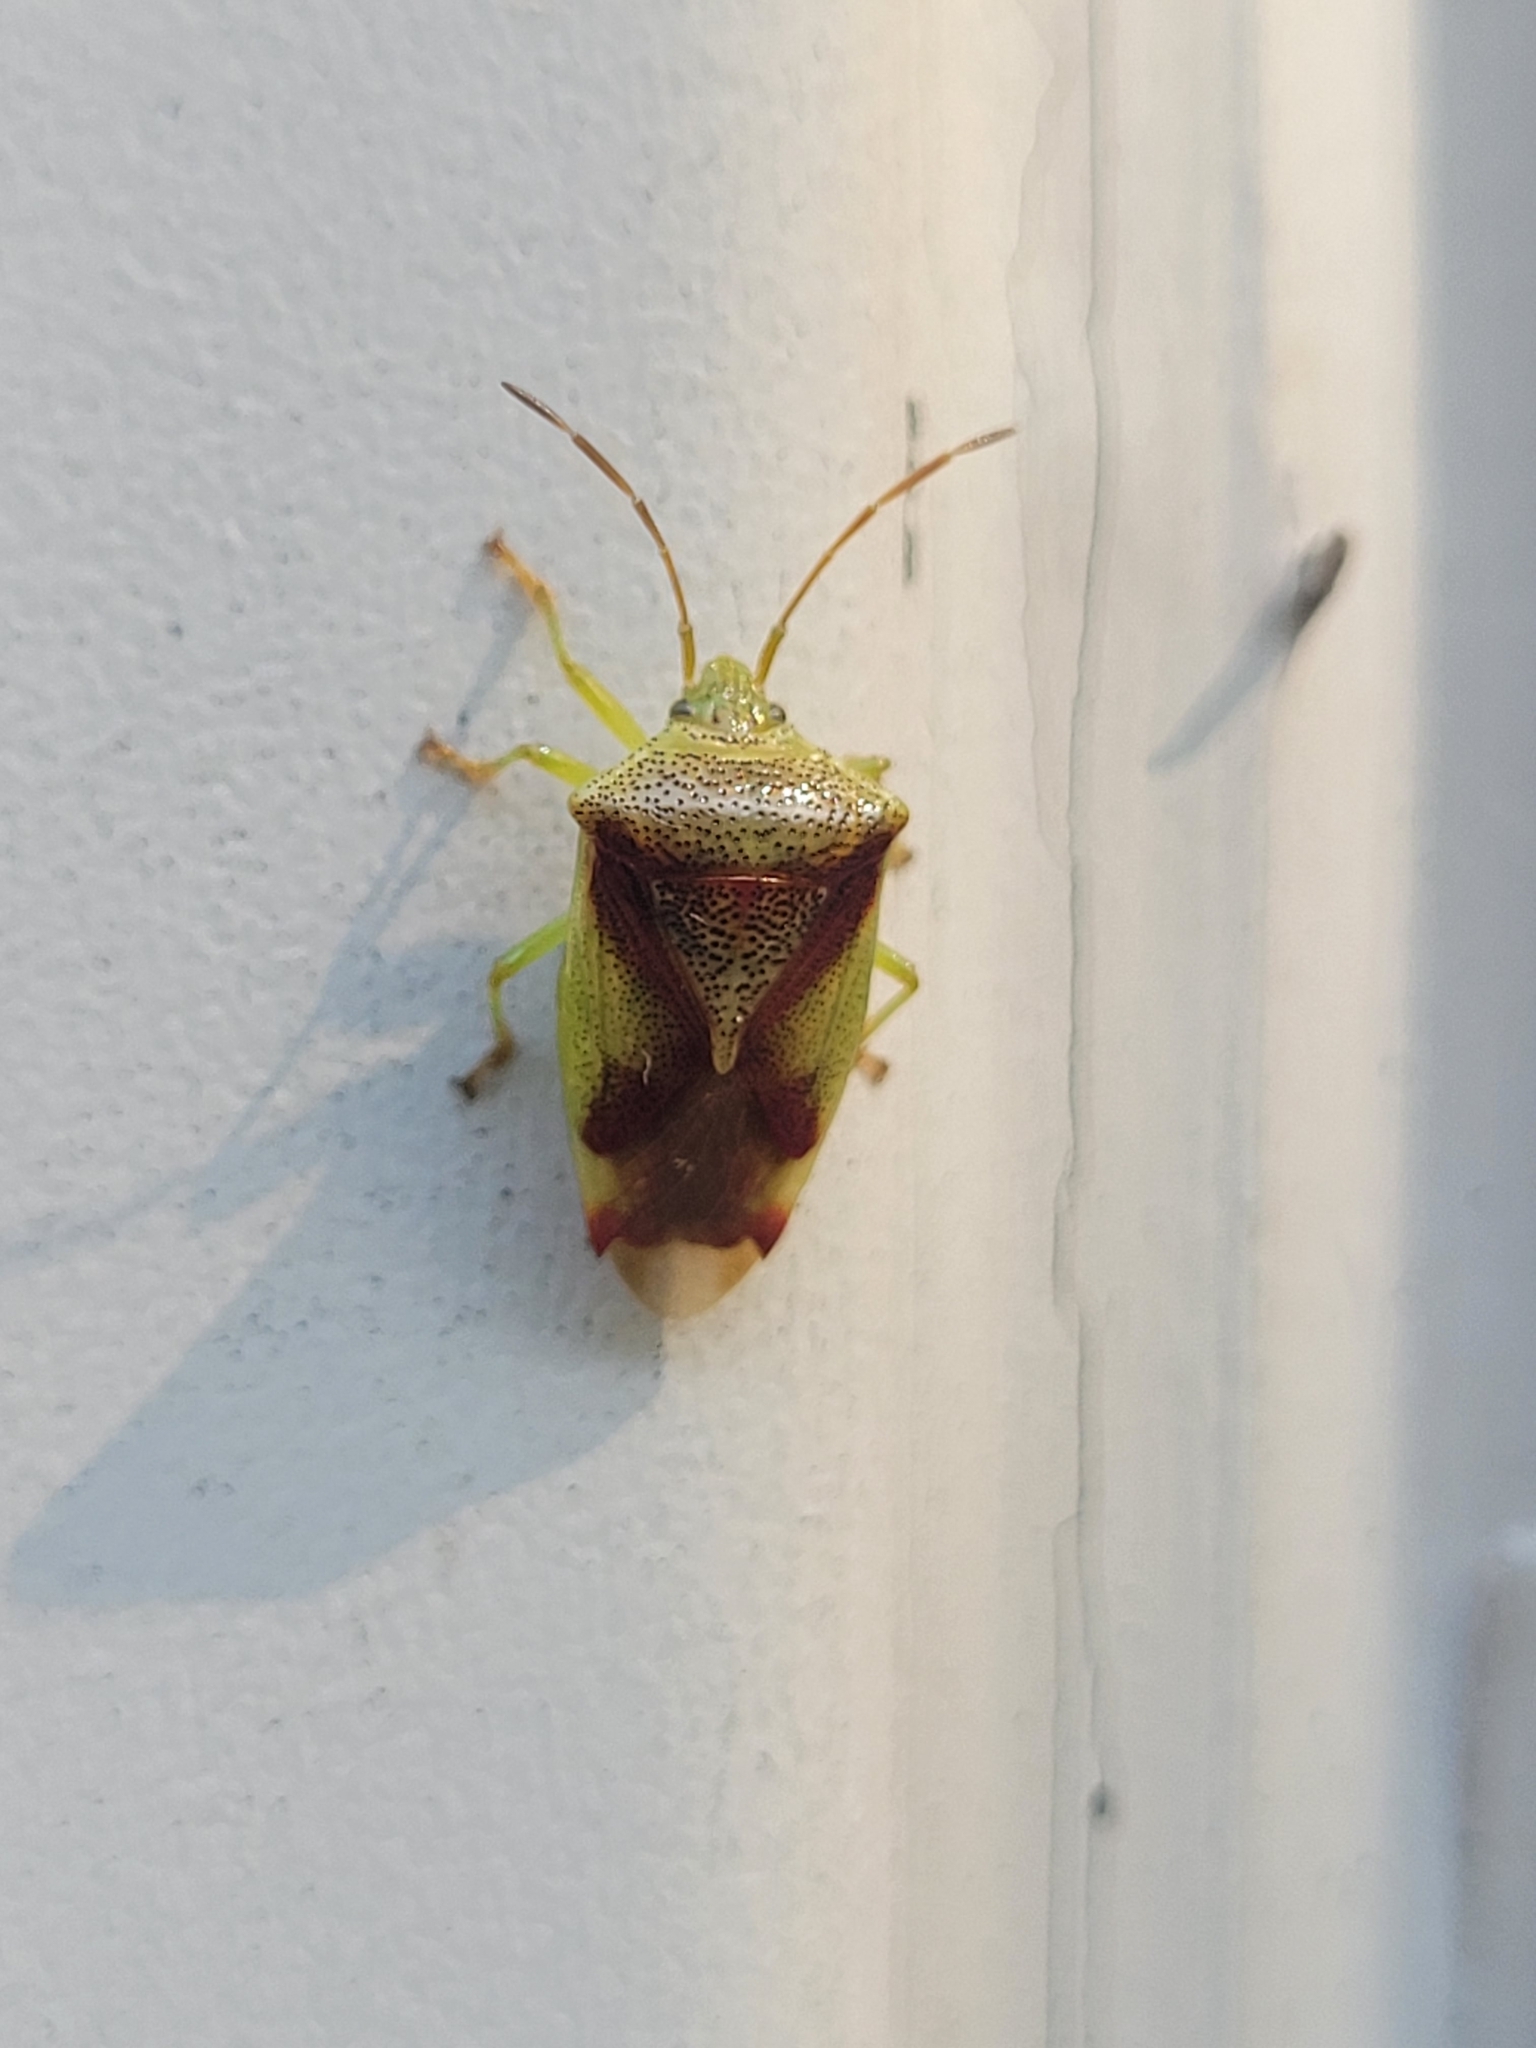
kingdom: Animalia
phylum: Arthropoda
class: Insecta
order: Hemiptera
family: Acanthosomatidae
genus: Elasmostethus
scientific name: Elasmostethus cruciatus
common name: Red-cross shield bug
